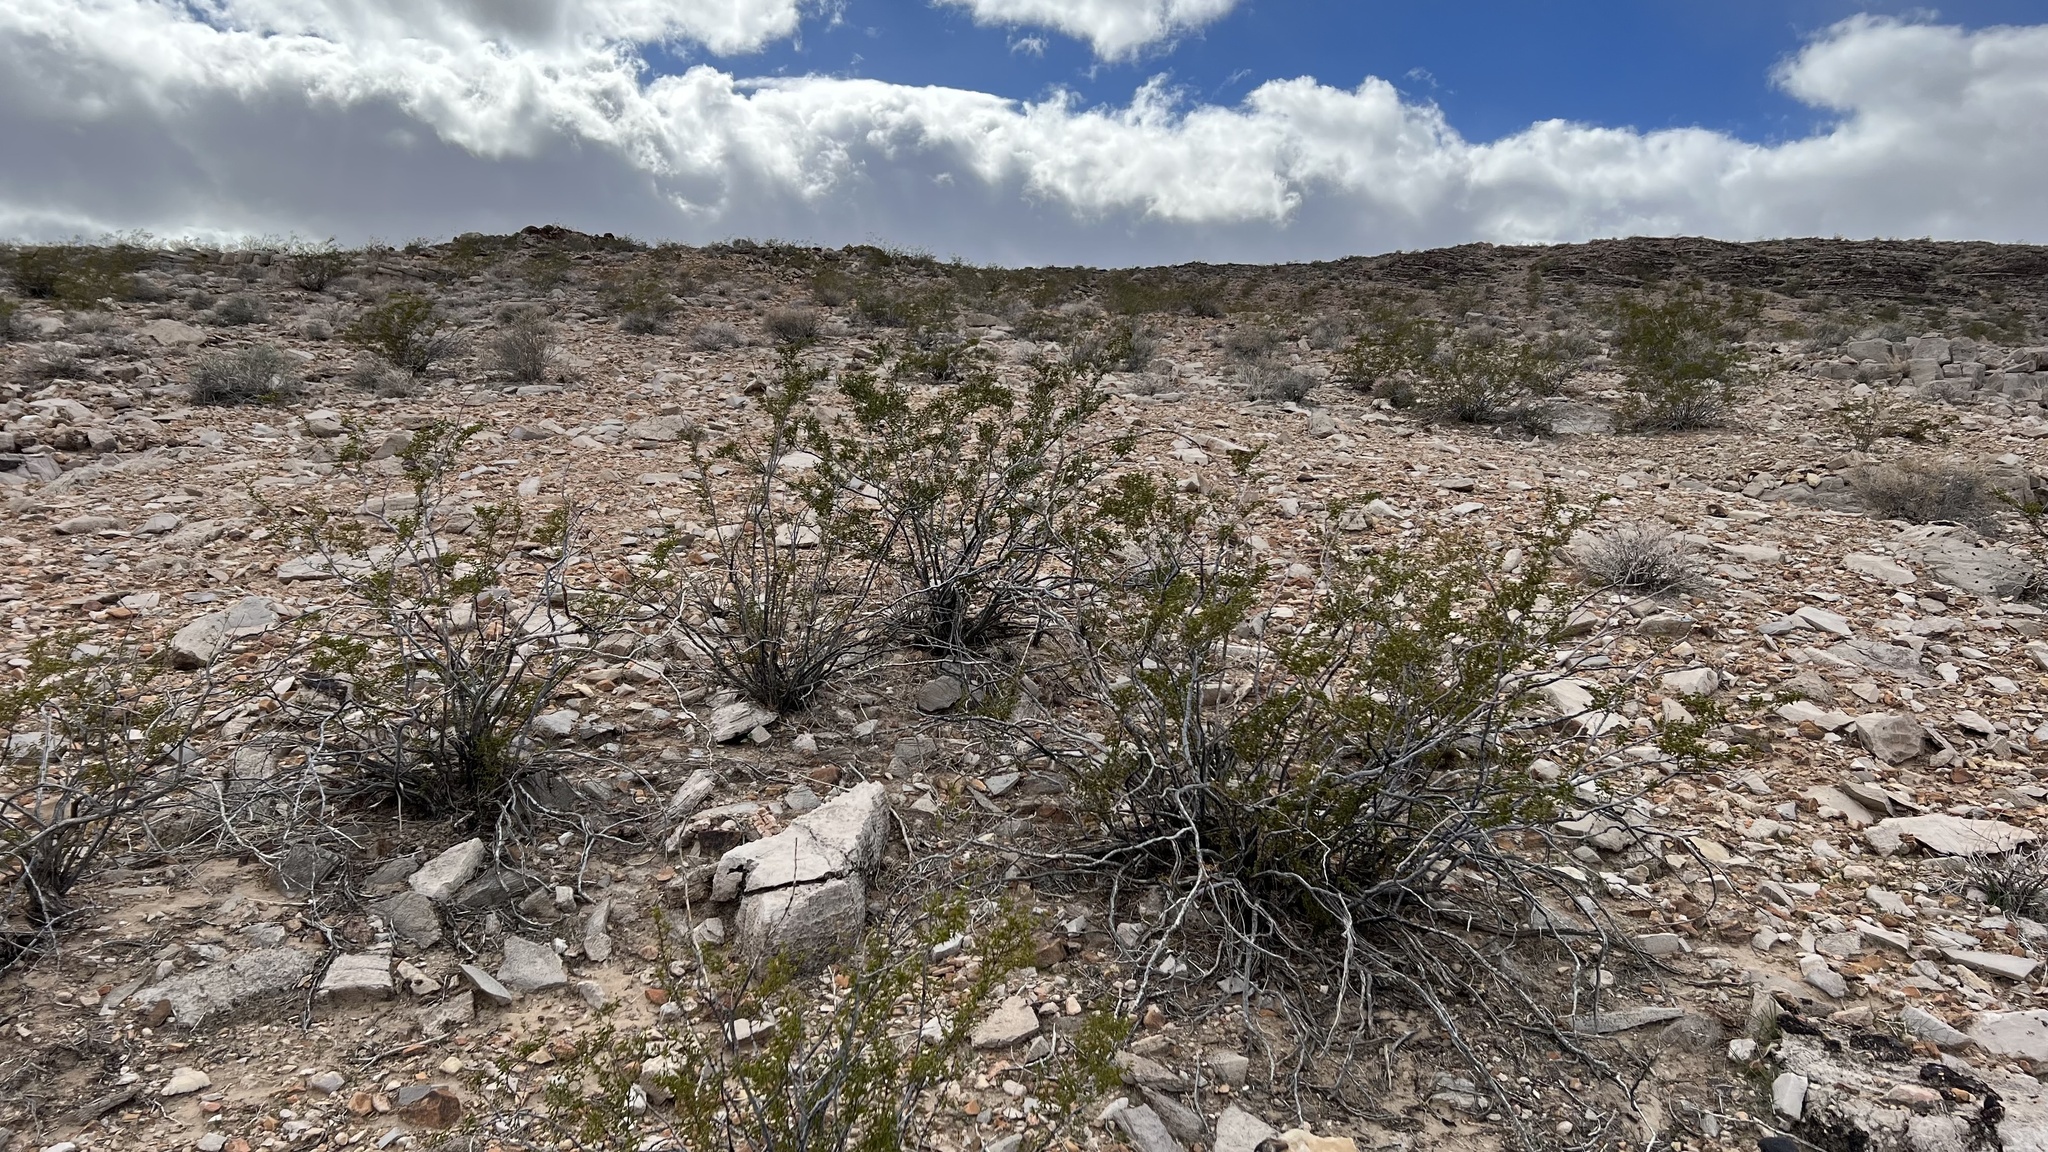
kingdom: Plantae
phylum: Tracheophyta
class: Magnoliopsida
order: Zygophyllales
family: Zygophyllaceae
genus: Larrea
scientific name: Larrea tridentata
